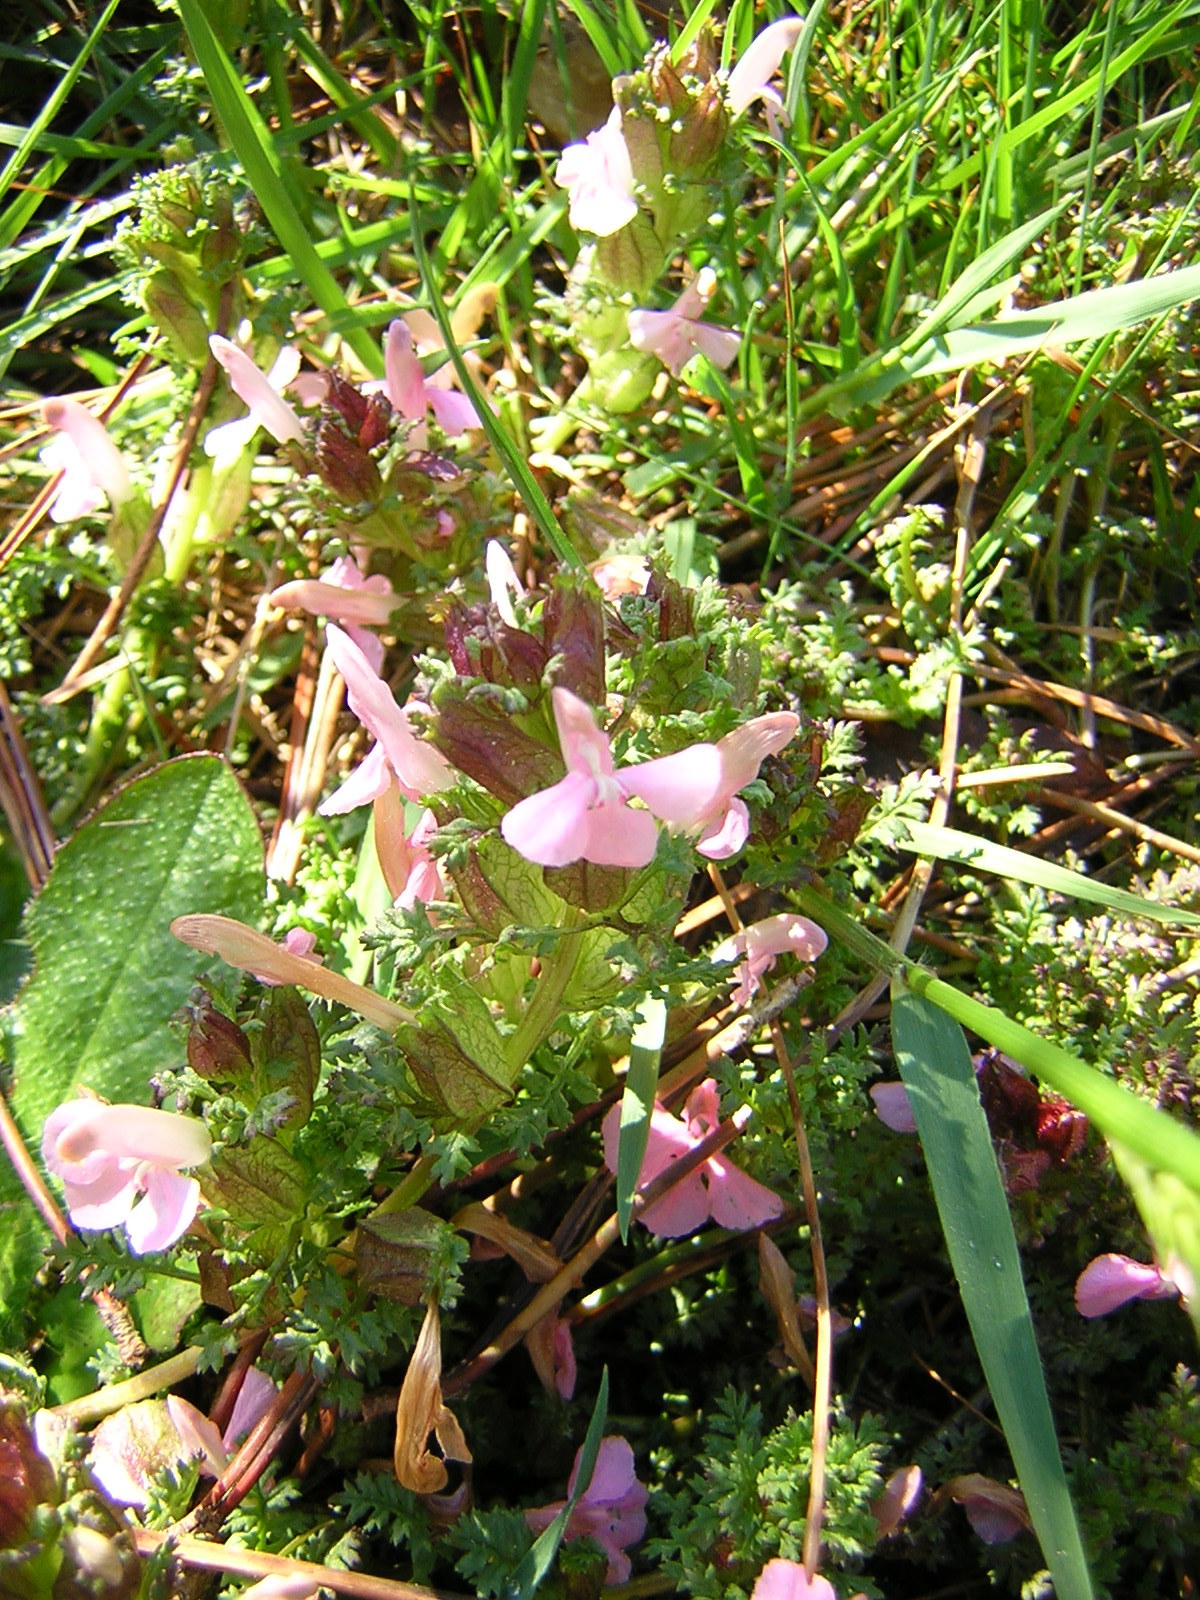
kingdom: Plantae
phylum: Tracheophyta
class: Magnoliopsida
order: Lamiales
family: Orobanchaceae
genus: Pedicularis
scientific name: Pedicularis sylvatica
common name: Lousewort
